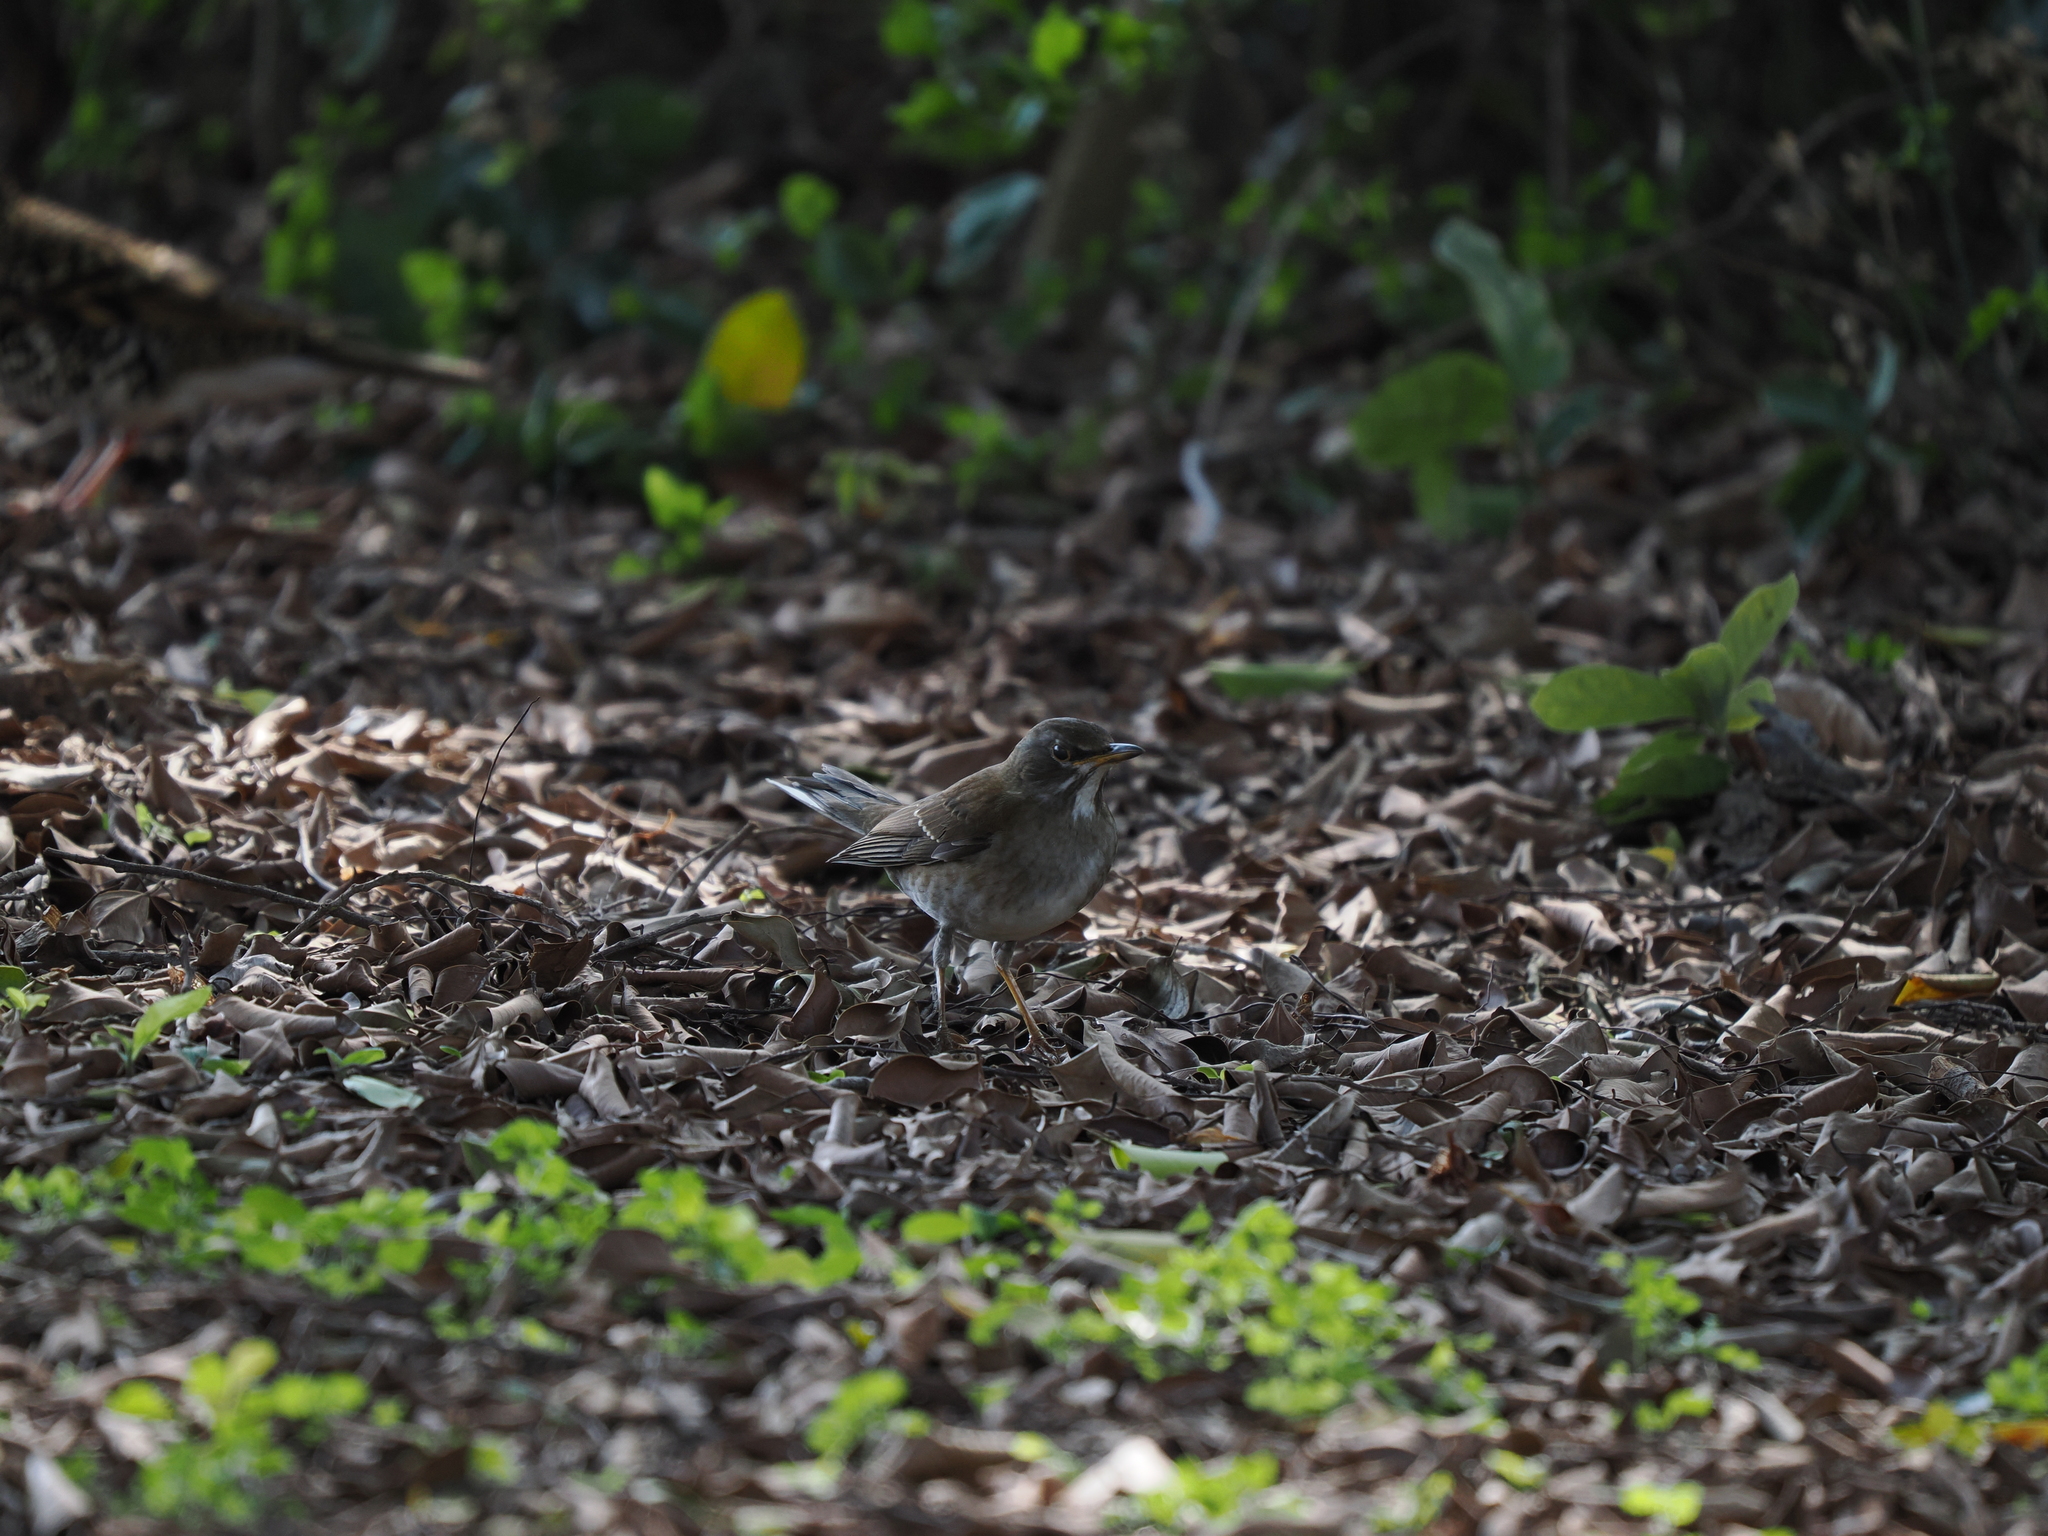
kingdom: Animalia
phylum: Chordata
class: Aves
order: Passeriformes
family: Turdidae
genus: Turdus
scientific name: Turdus pallidus
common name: Pale thrush
